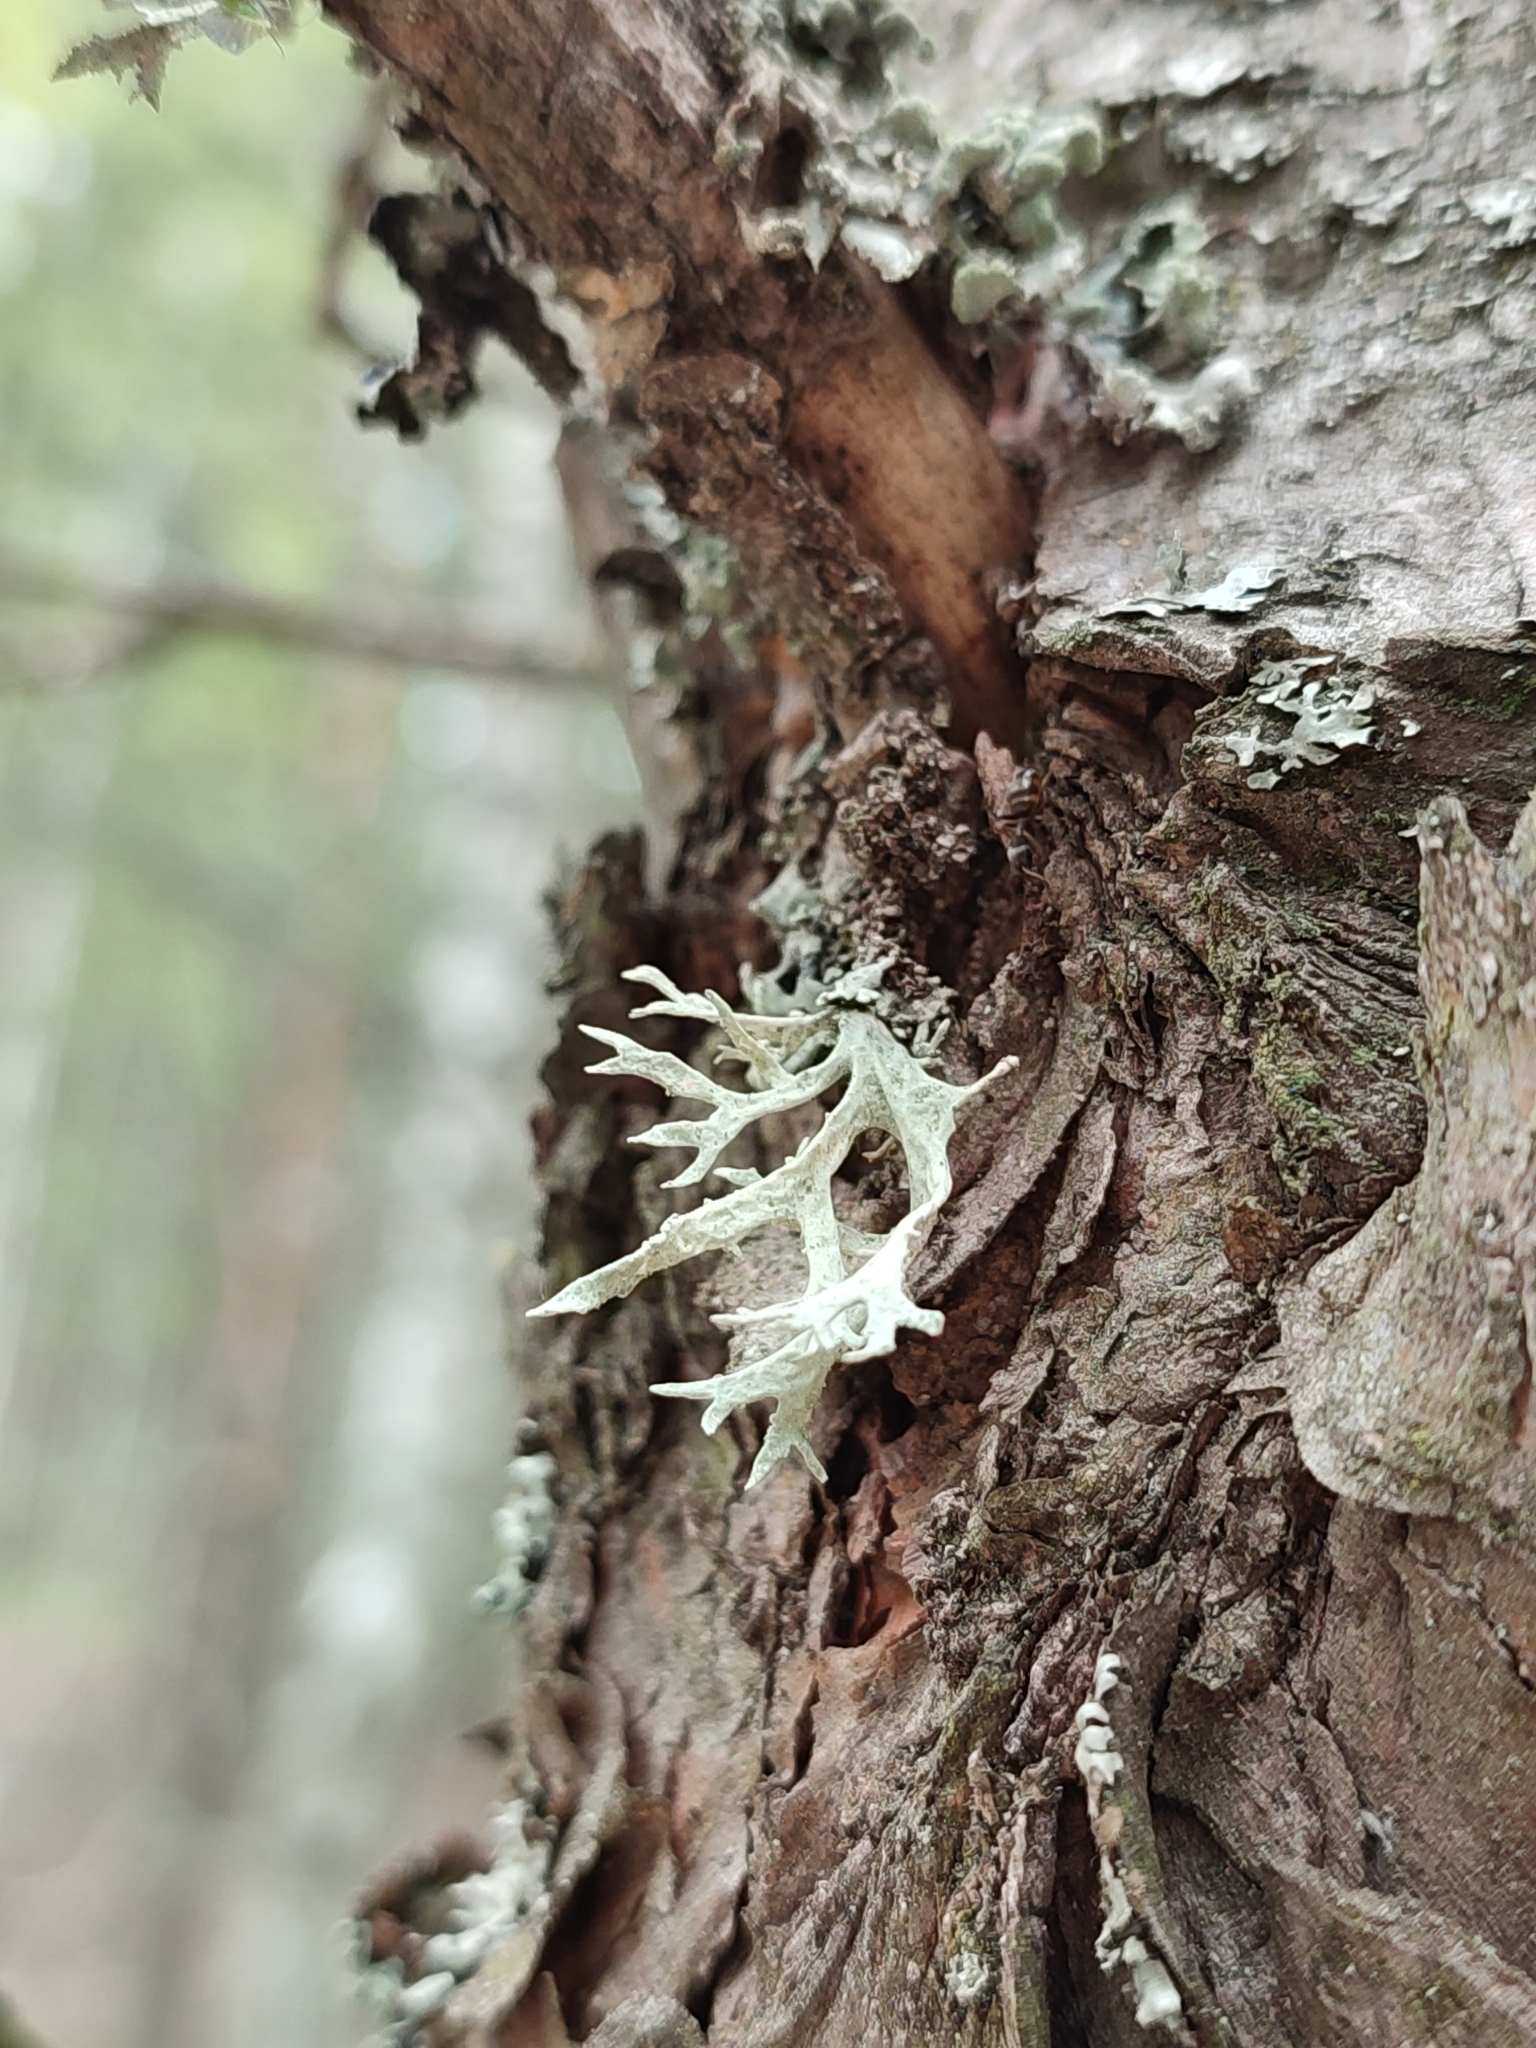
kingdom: Fungi
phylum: Ascomycota
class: Lecanoromycetes
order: Lecanorales
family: Parmeliaceae
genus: Evernia
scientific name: Evernia prunastri
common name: Oak moss
